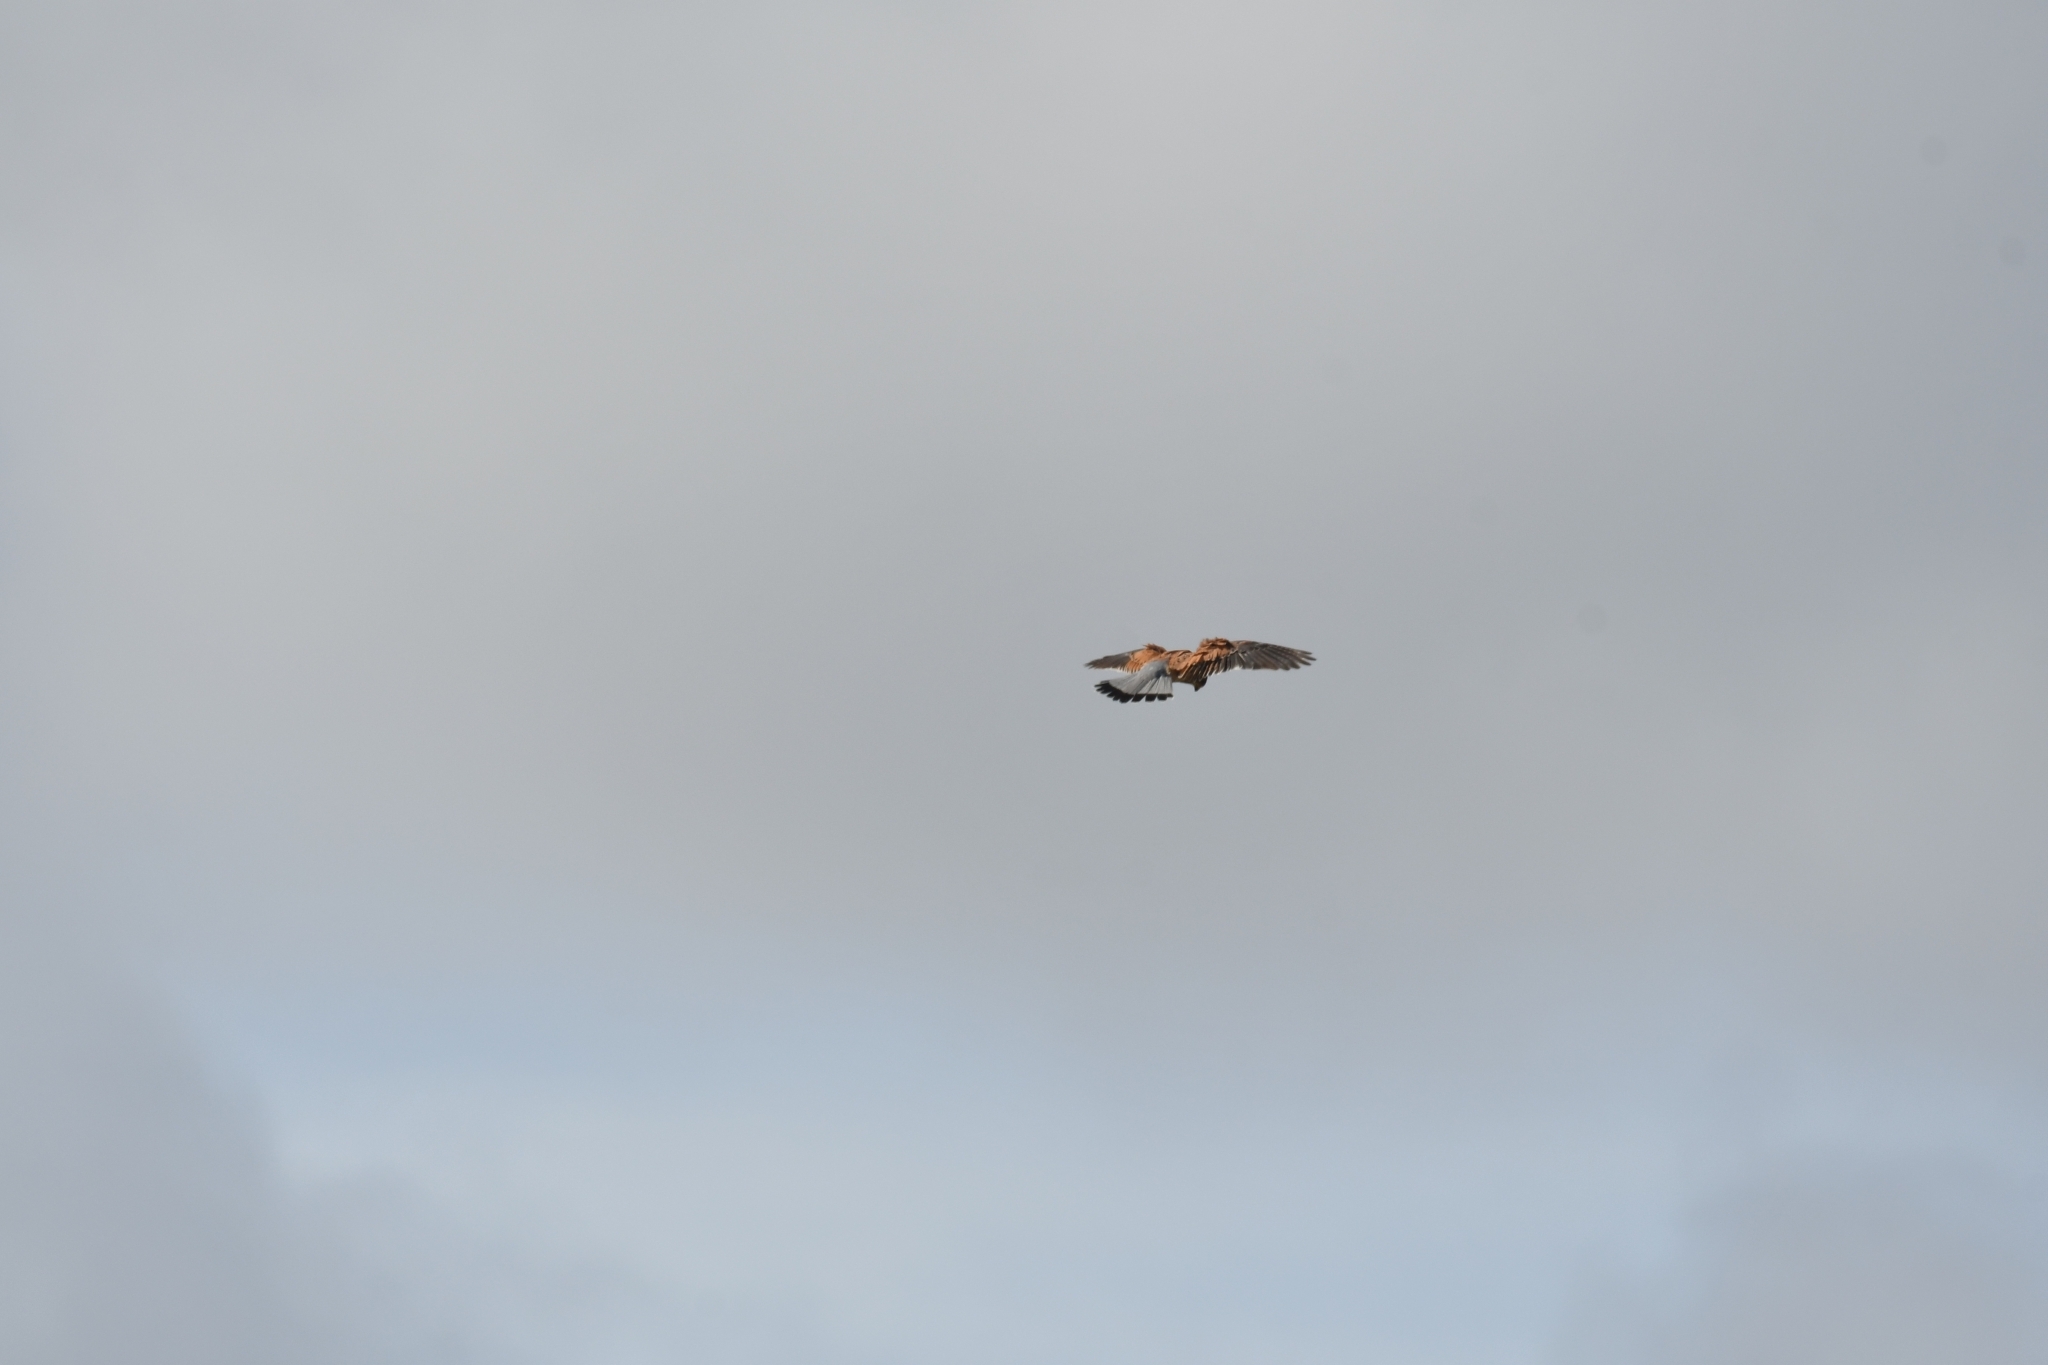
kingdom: Animalia
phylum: Chordata
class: Aves
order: Falconiformes
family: Falconidae
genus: Falco
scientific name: Falco tinnunculus
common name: Common kestrel
